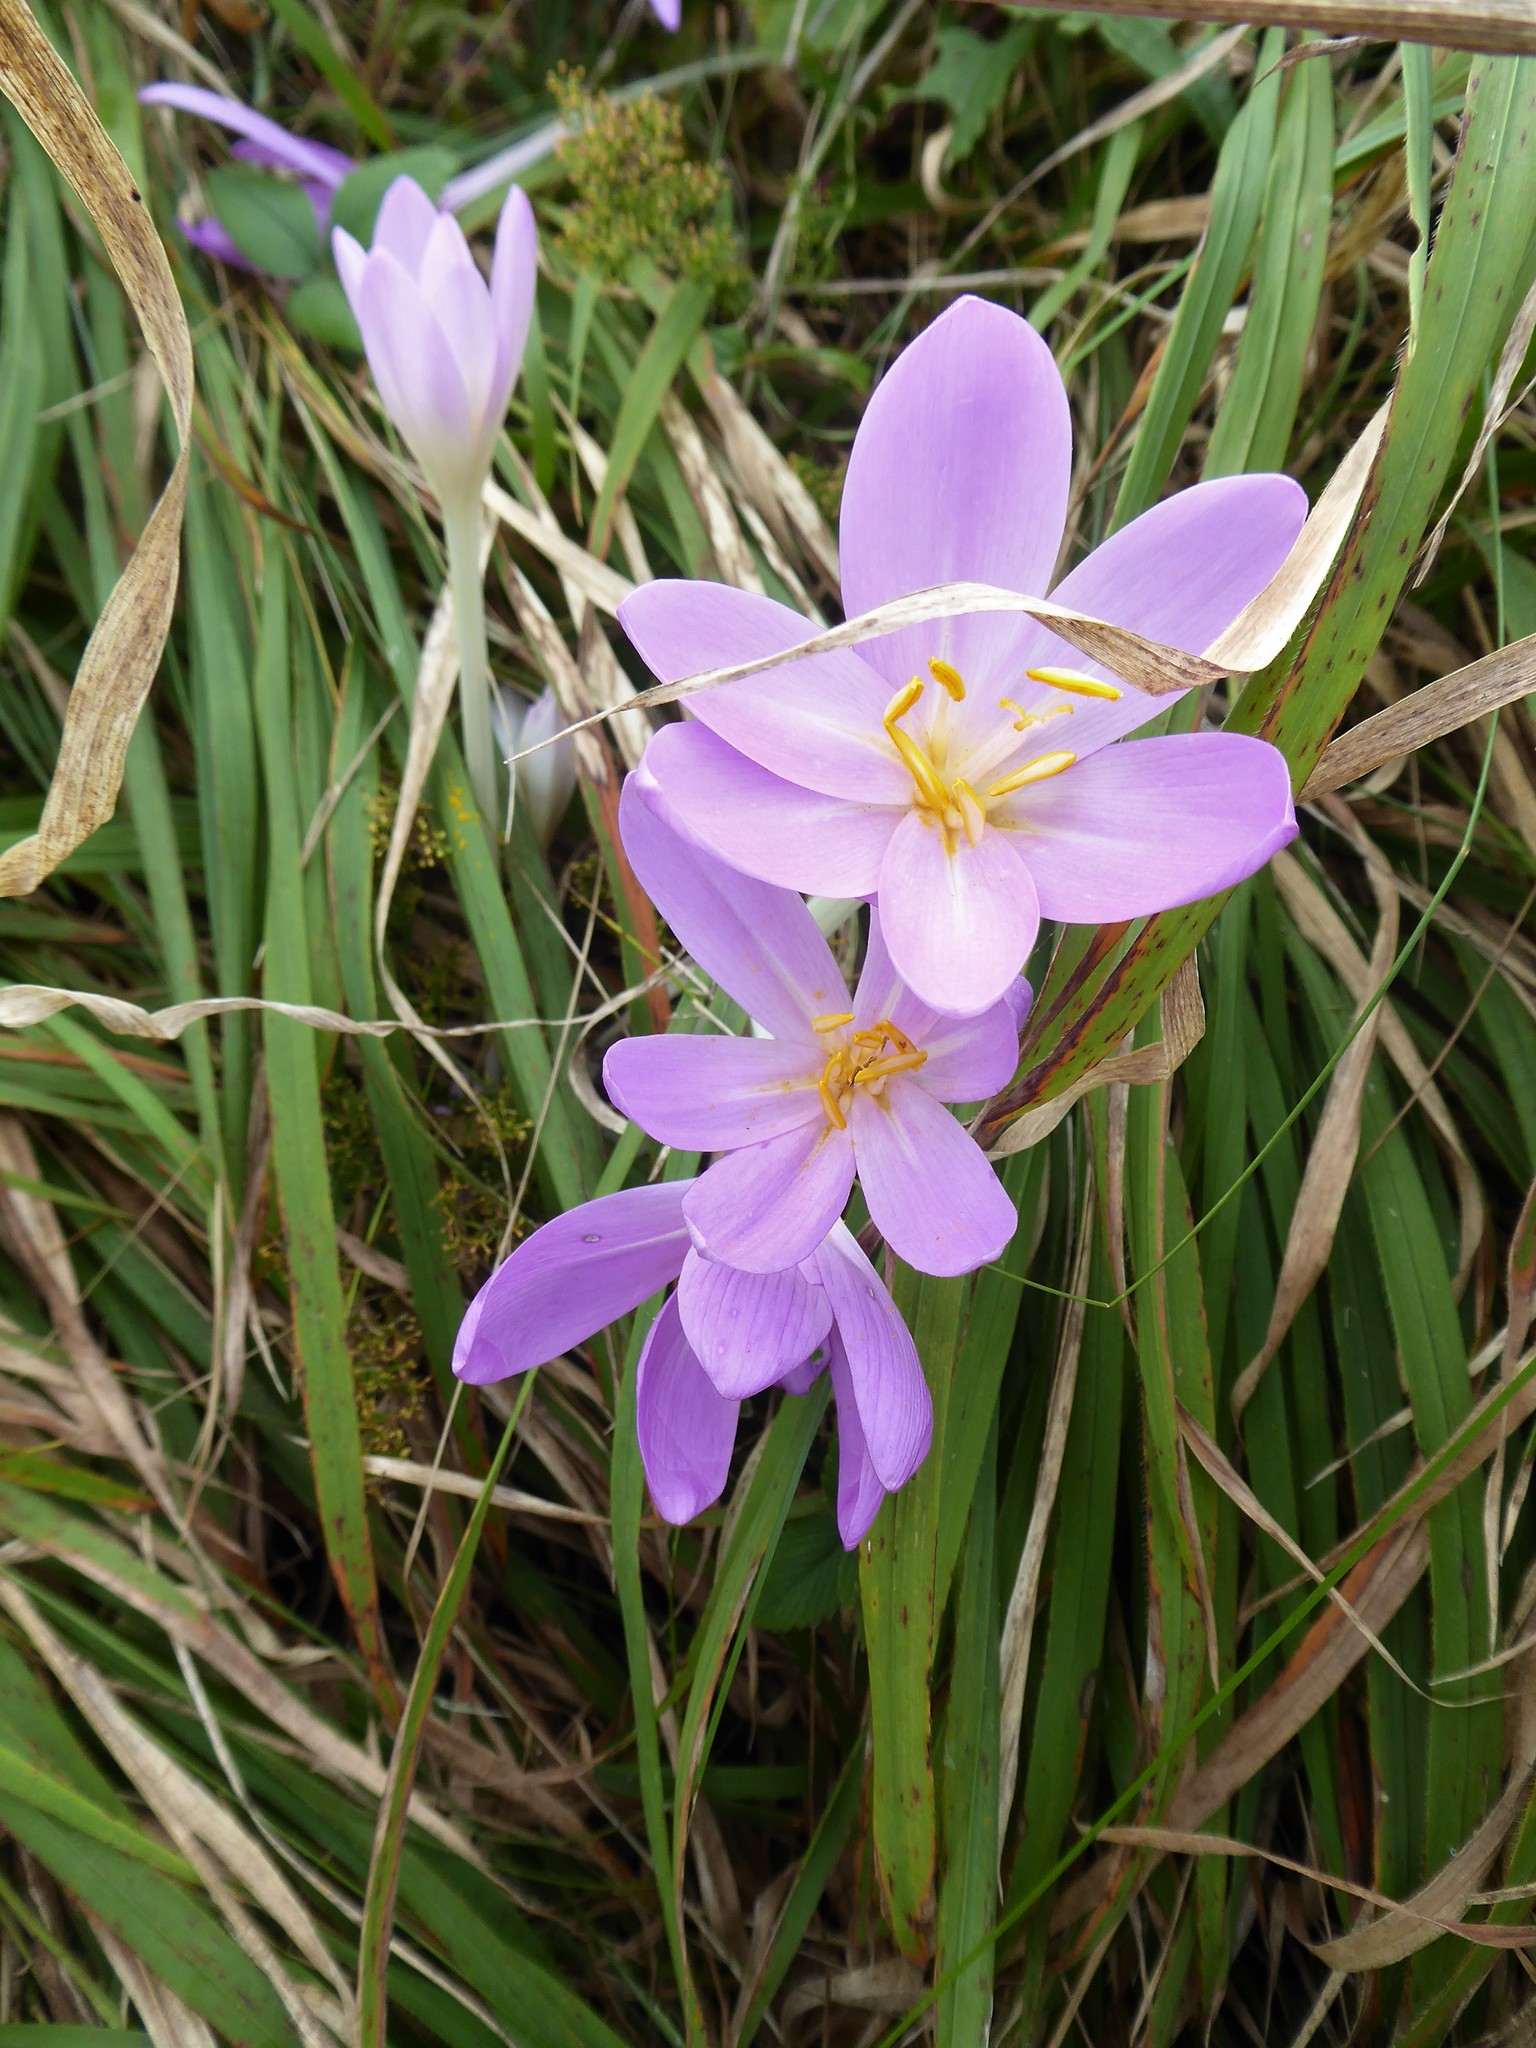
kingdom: Plantae
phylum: Tracheophyta
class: Liliopsida
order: Liliales
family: Colchicaceae
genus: Colchicum
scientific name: Colchicum autumnale
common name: Autumn crocus
